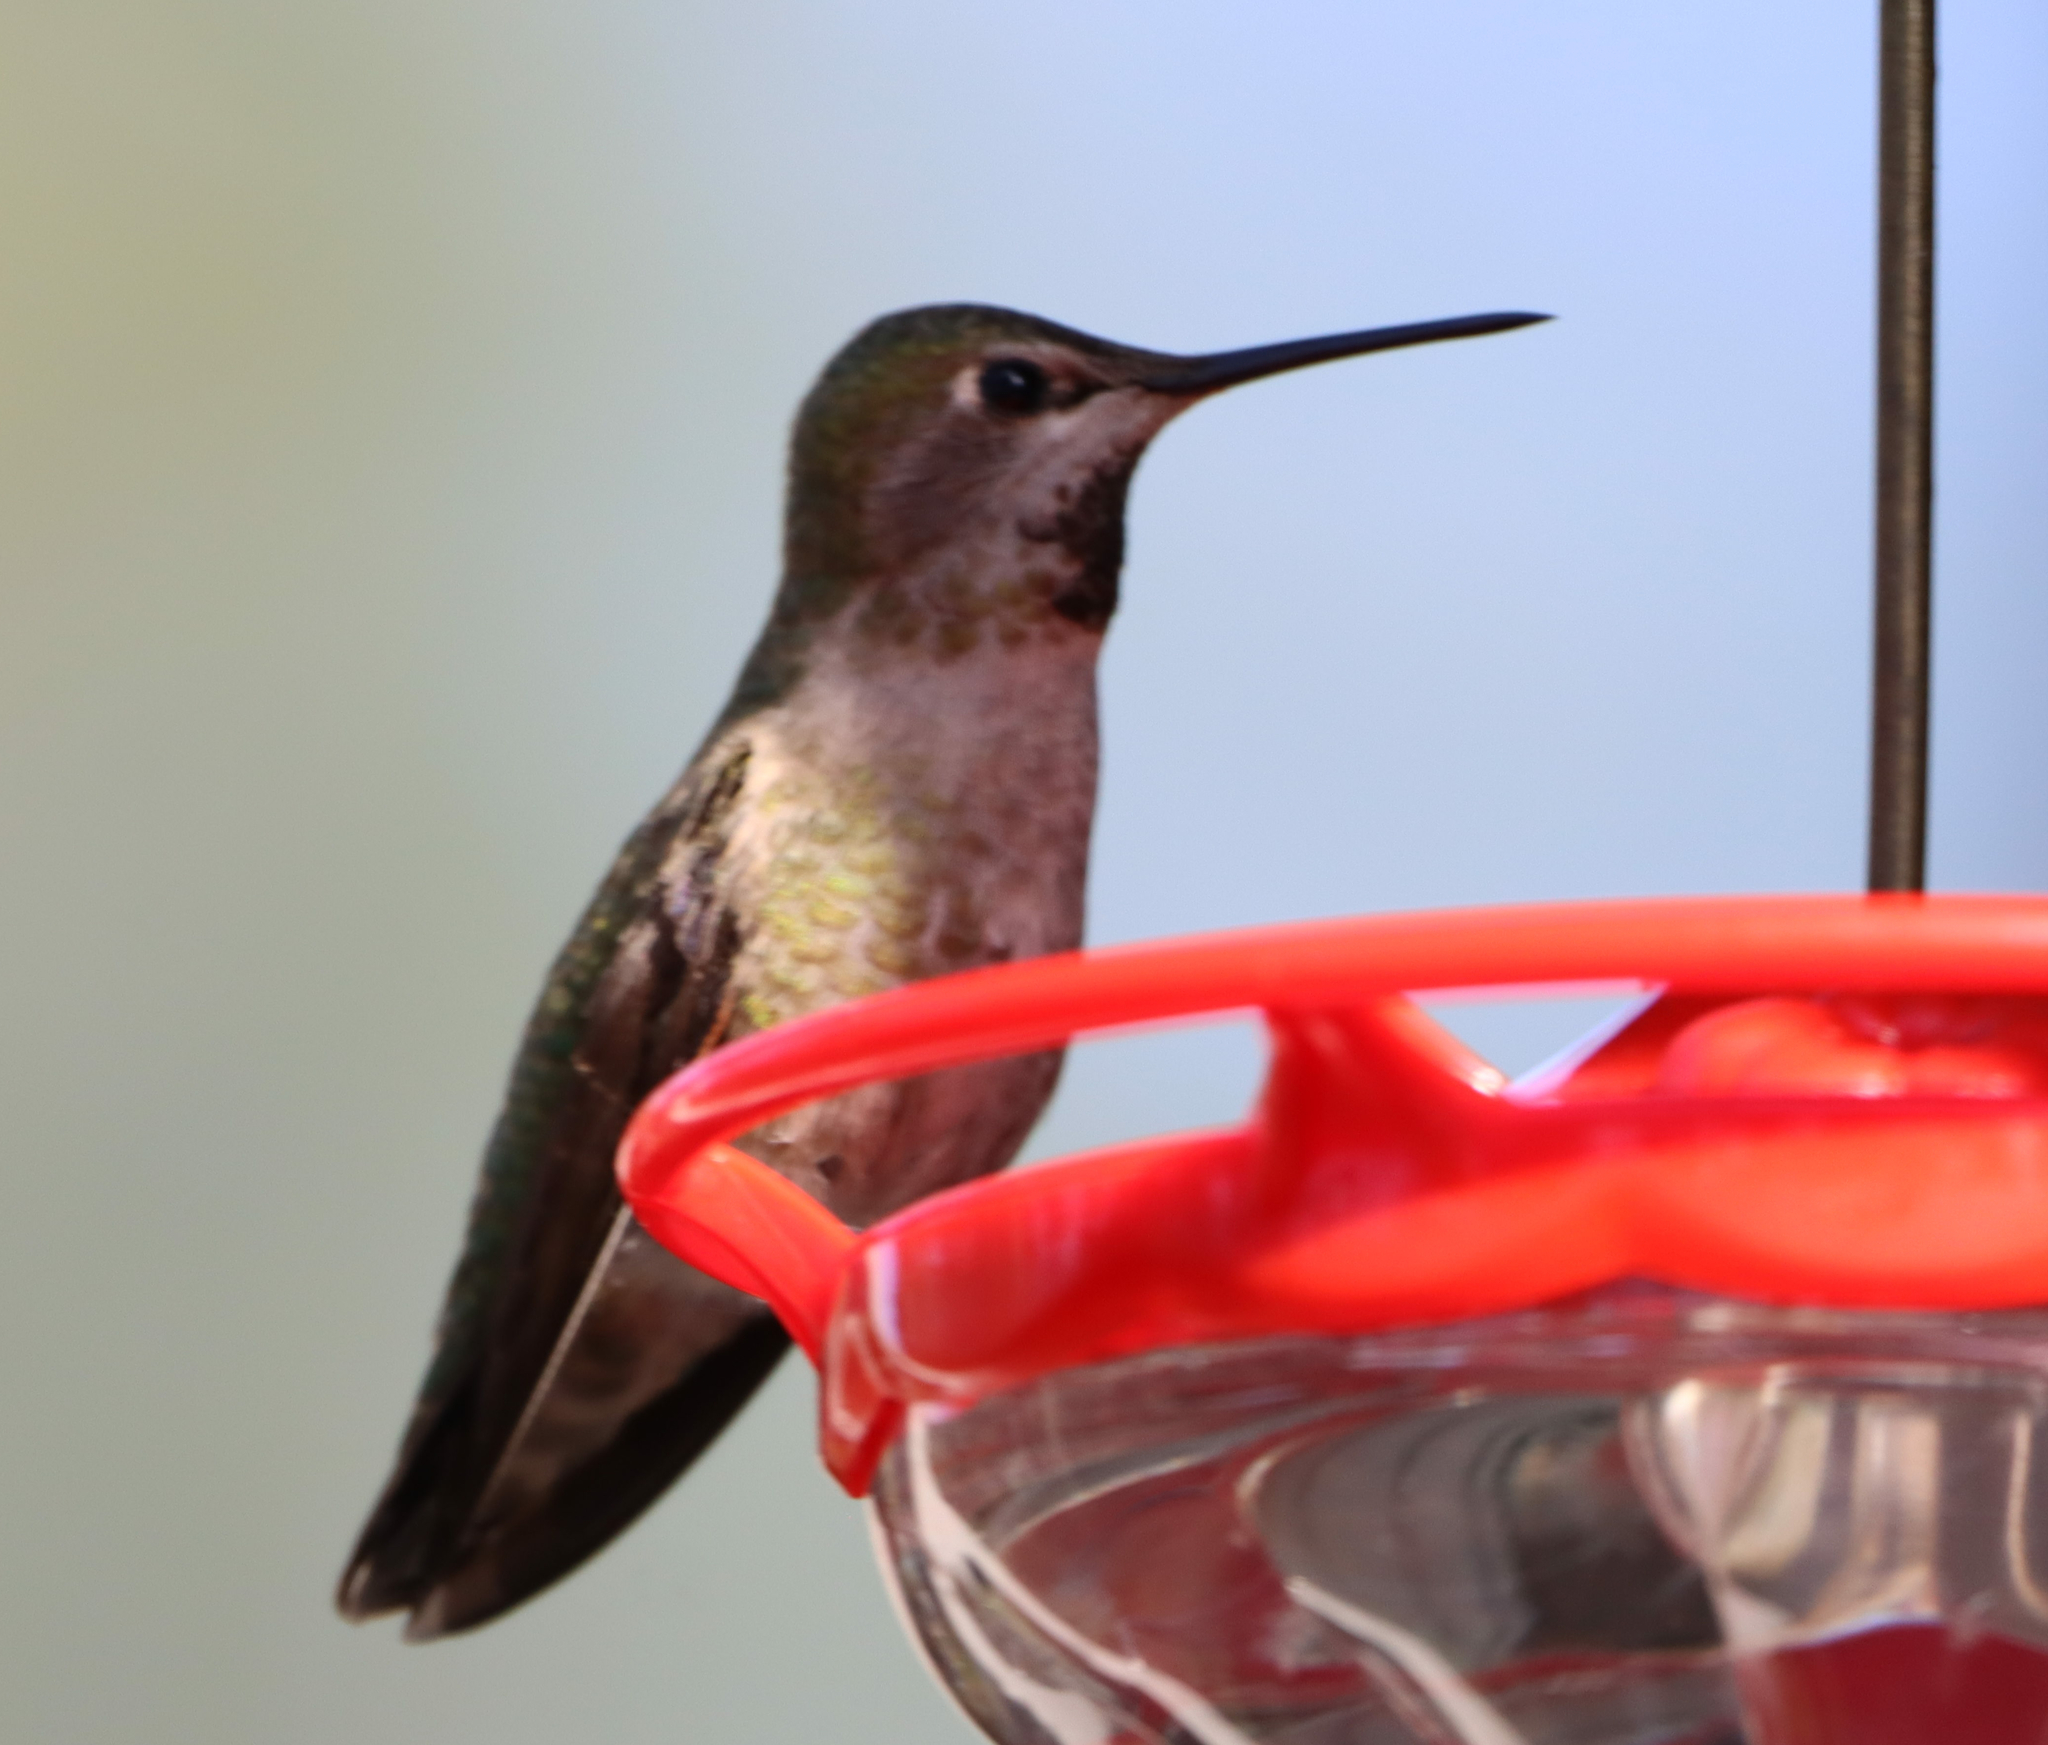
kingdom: Animalia
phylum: Chordata
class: Aves
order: Apodiformes
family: Trochilidae
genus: Calypte
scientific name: Calypte anna
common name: Anna's hummingbird
